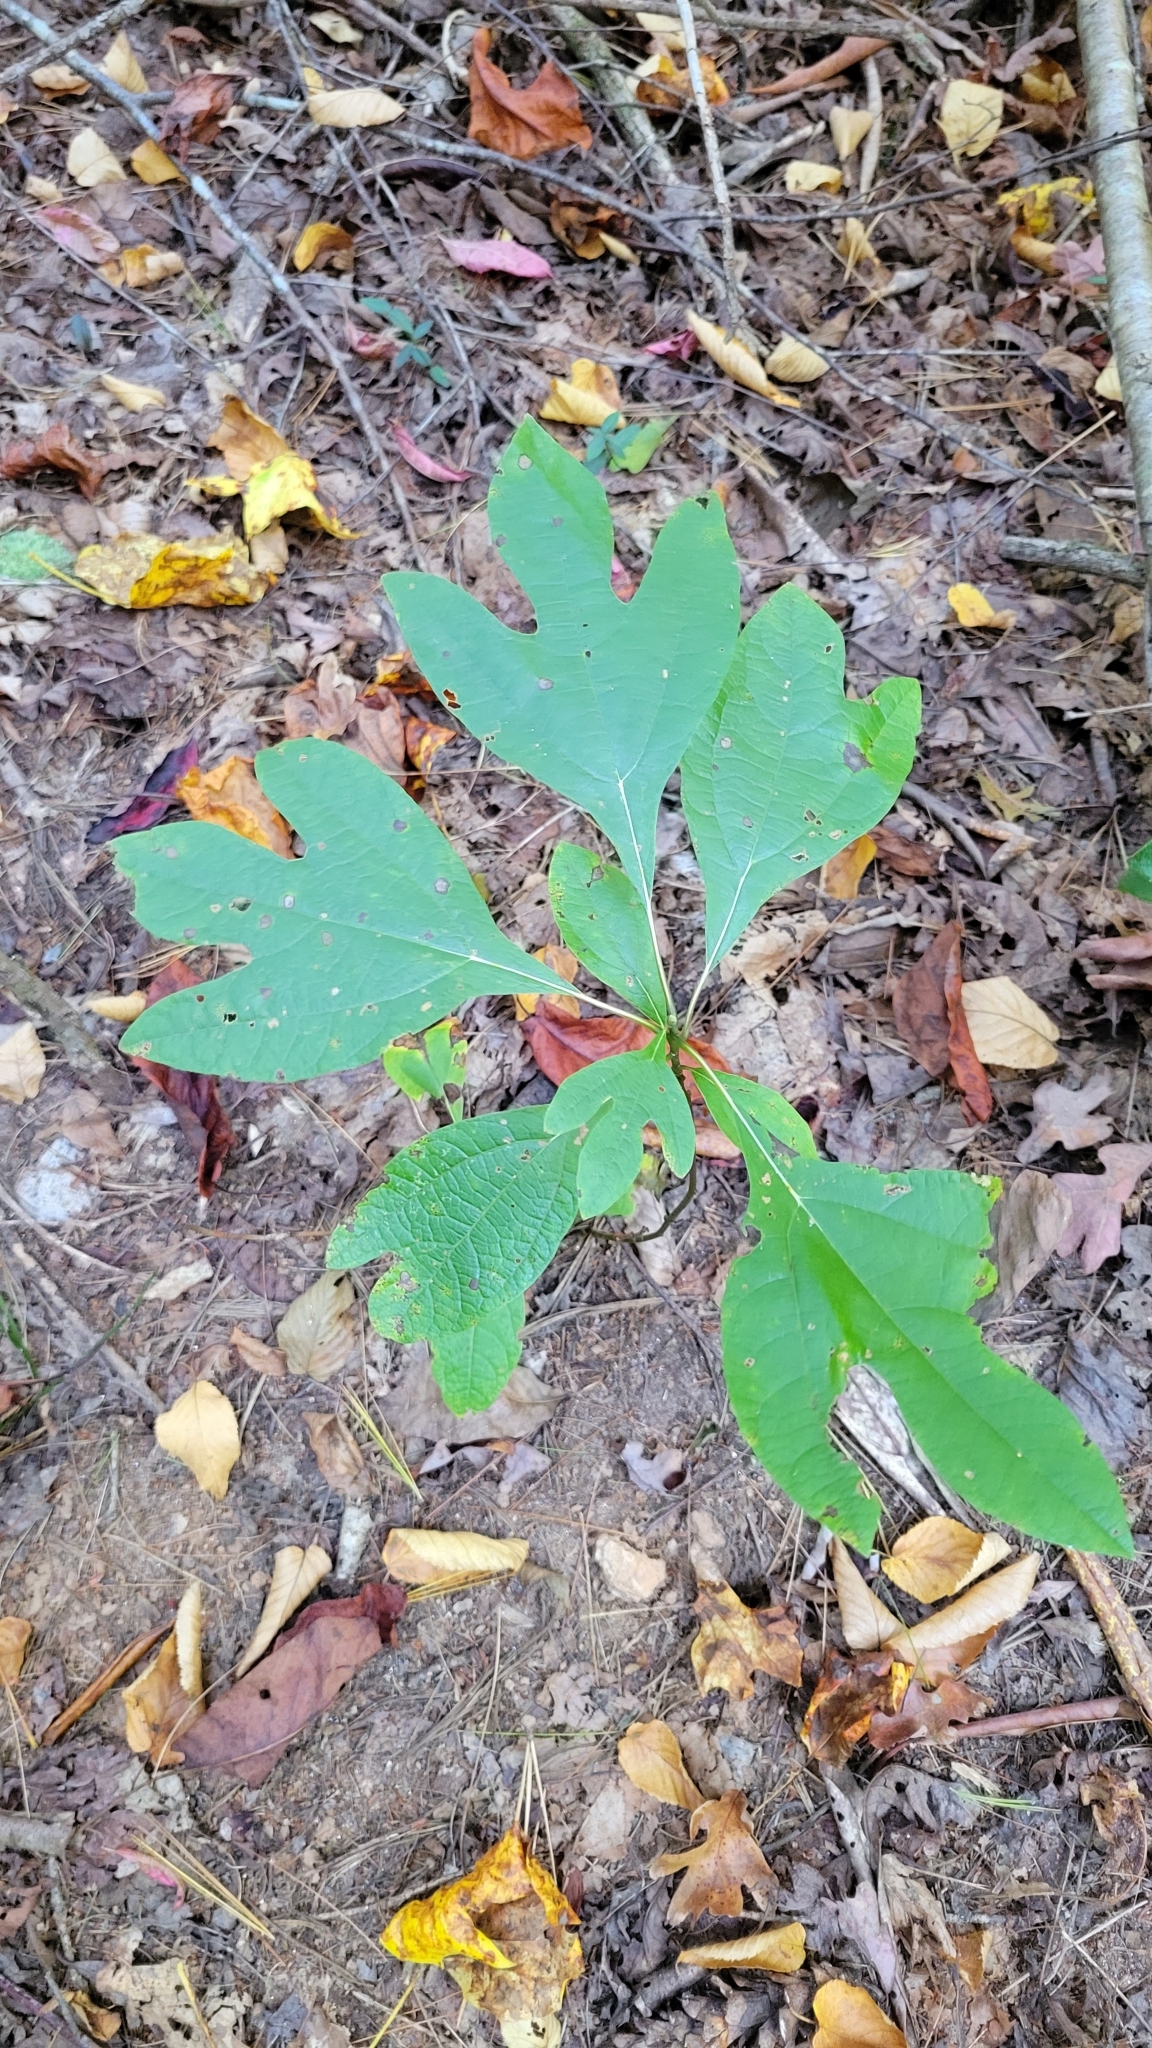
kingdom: Plantae
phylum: Tracheophyta
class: Magnoliopsida
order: Laurales
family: Lauraceae
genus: Sassafras
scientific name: Sassafras albidum
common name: Sassafras
